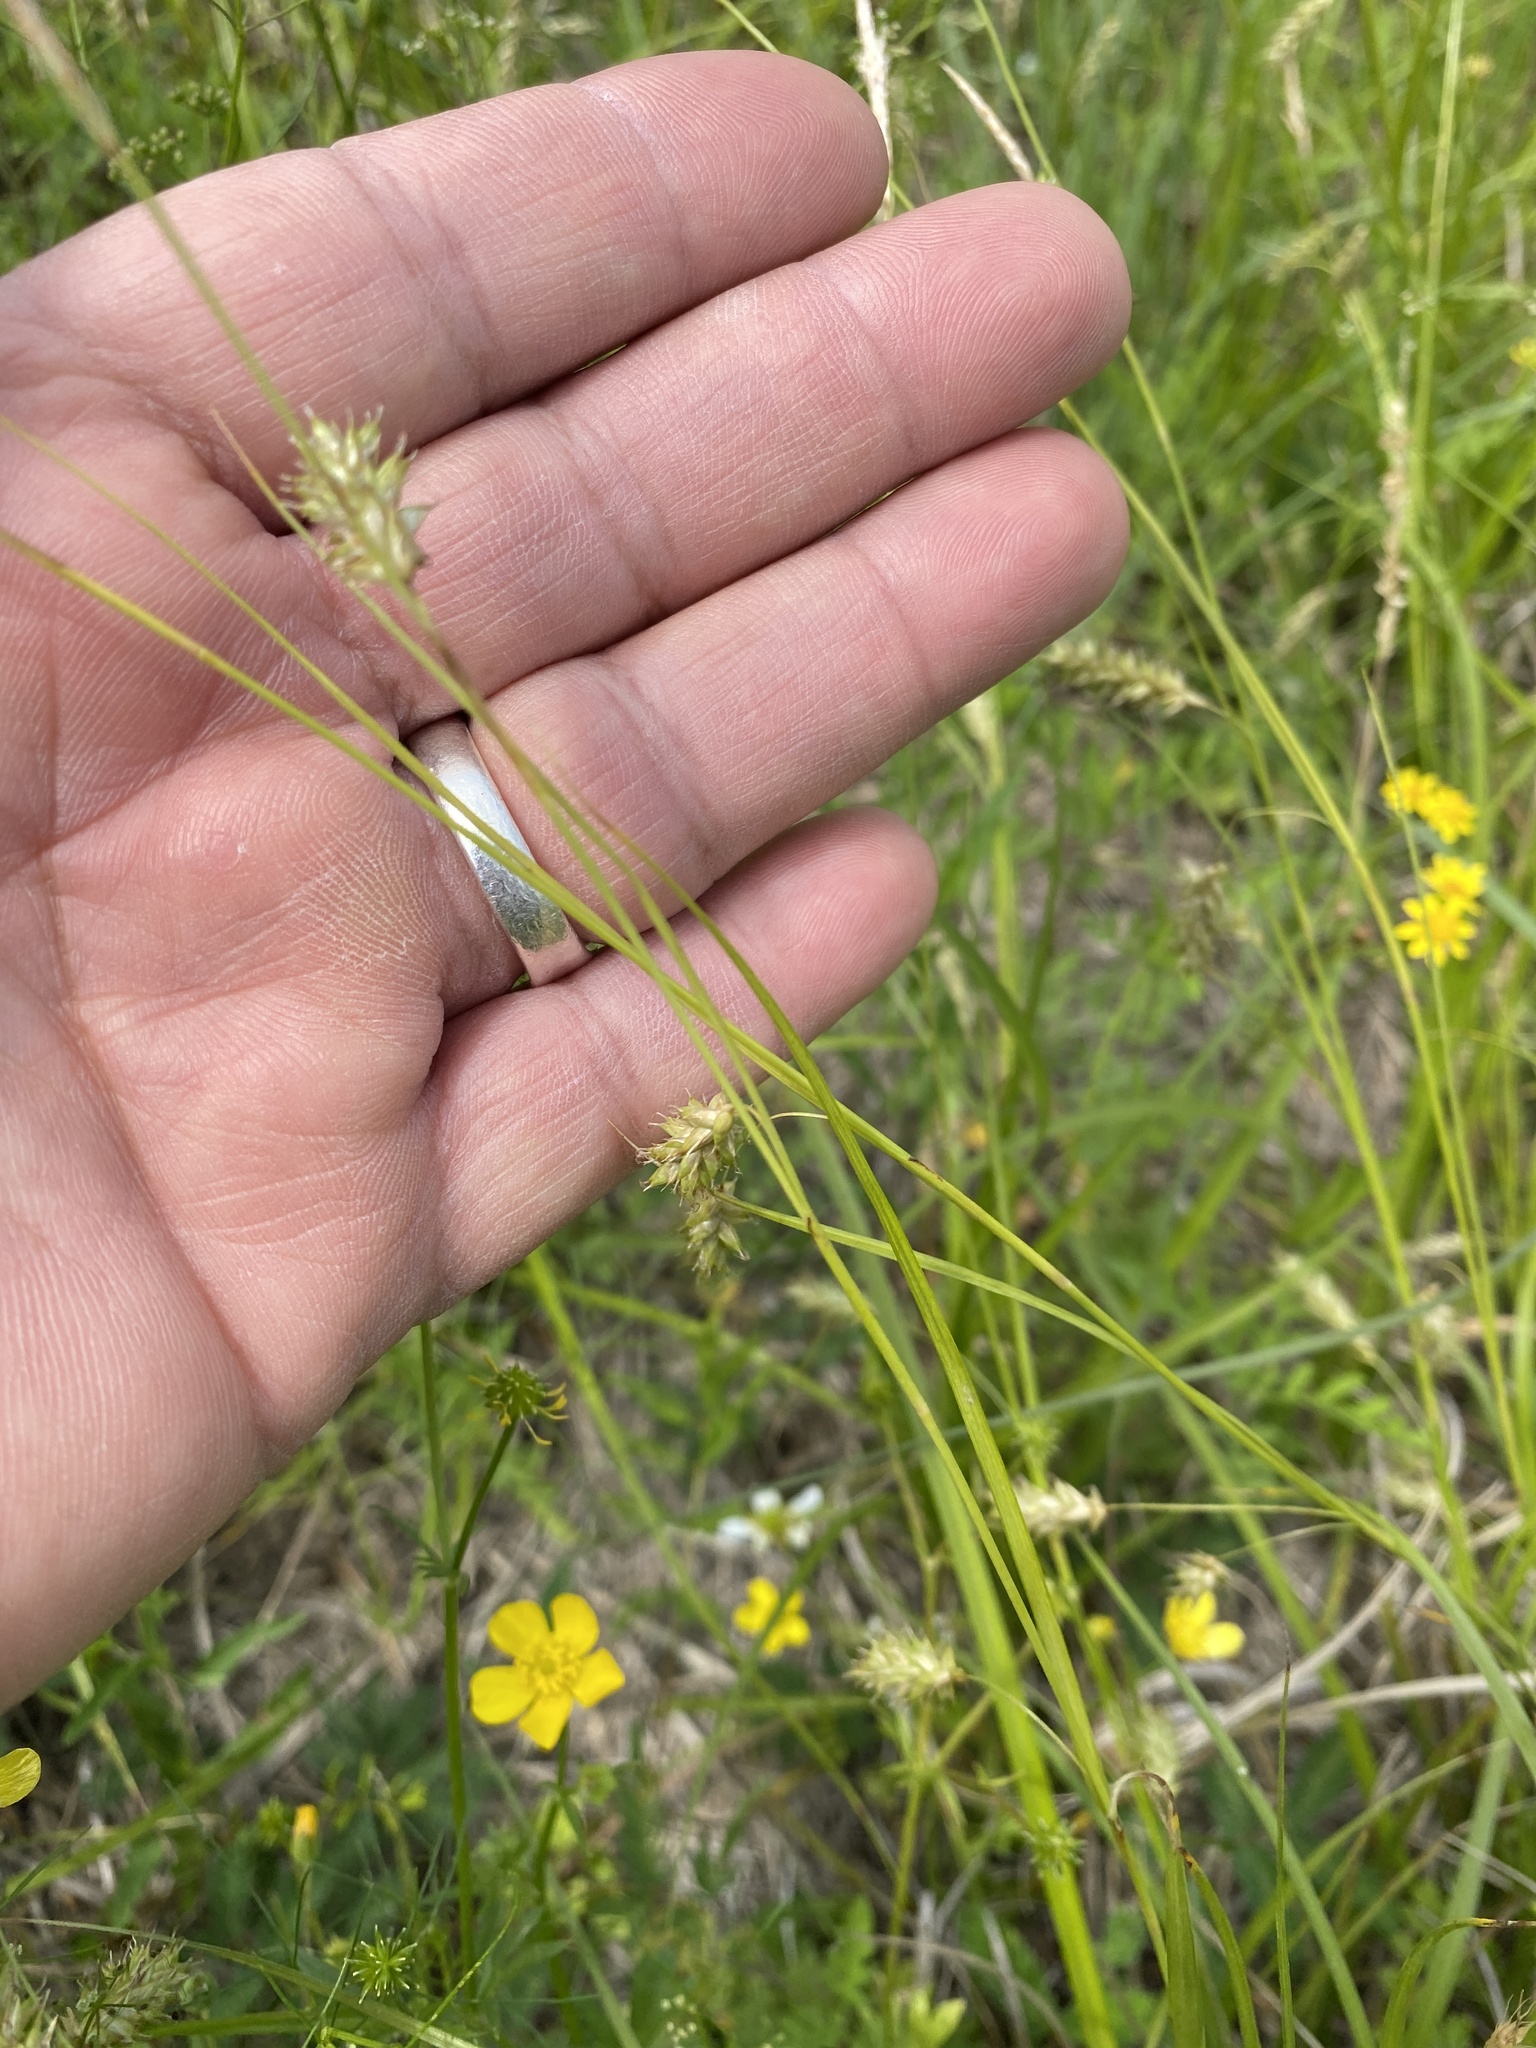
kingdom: Plantae
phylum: Tracheophyta
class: Liliopsida
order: Poales
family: Cyperaceae
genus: Carex
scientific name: Carex cherokeensis
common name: Cherokee sedge
